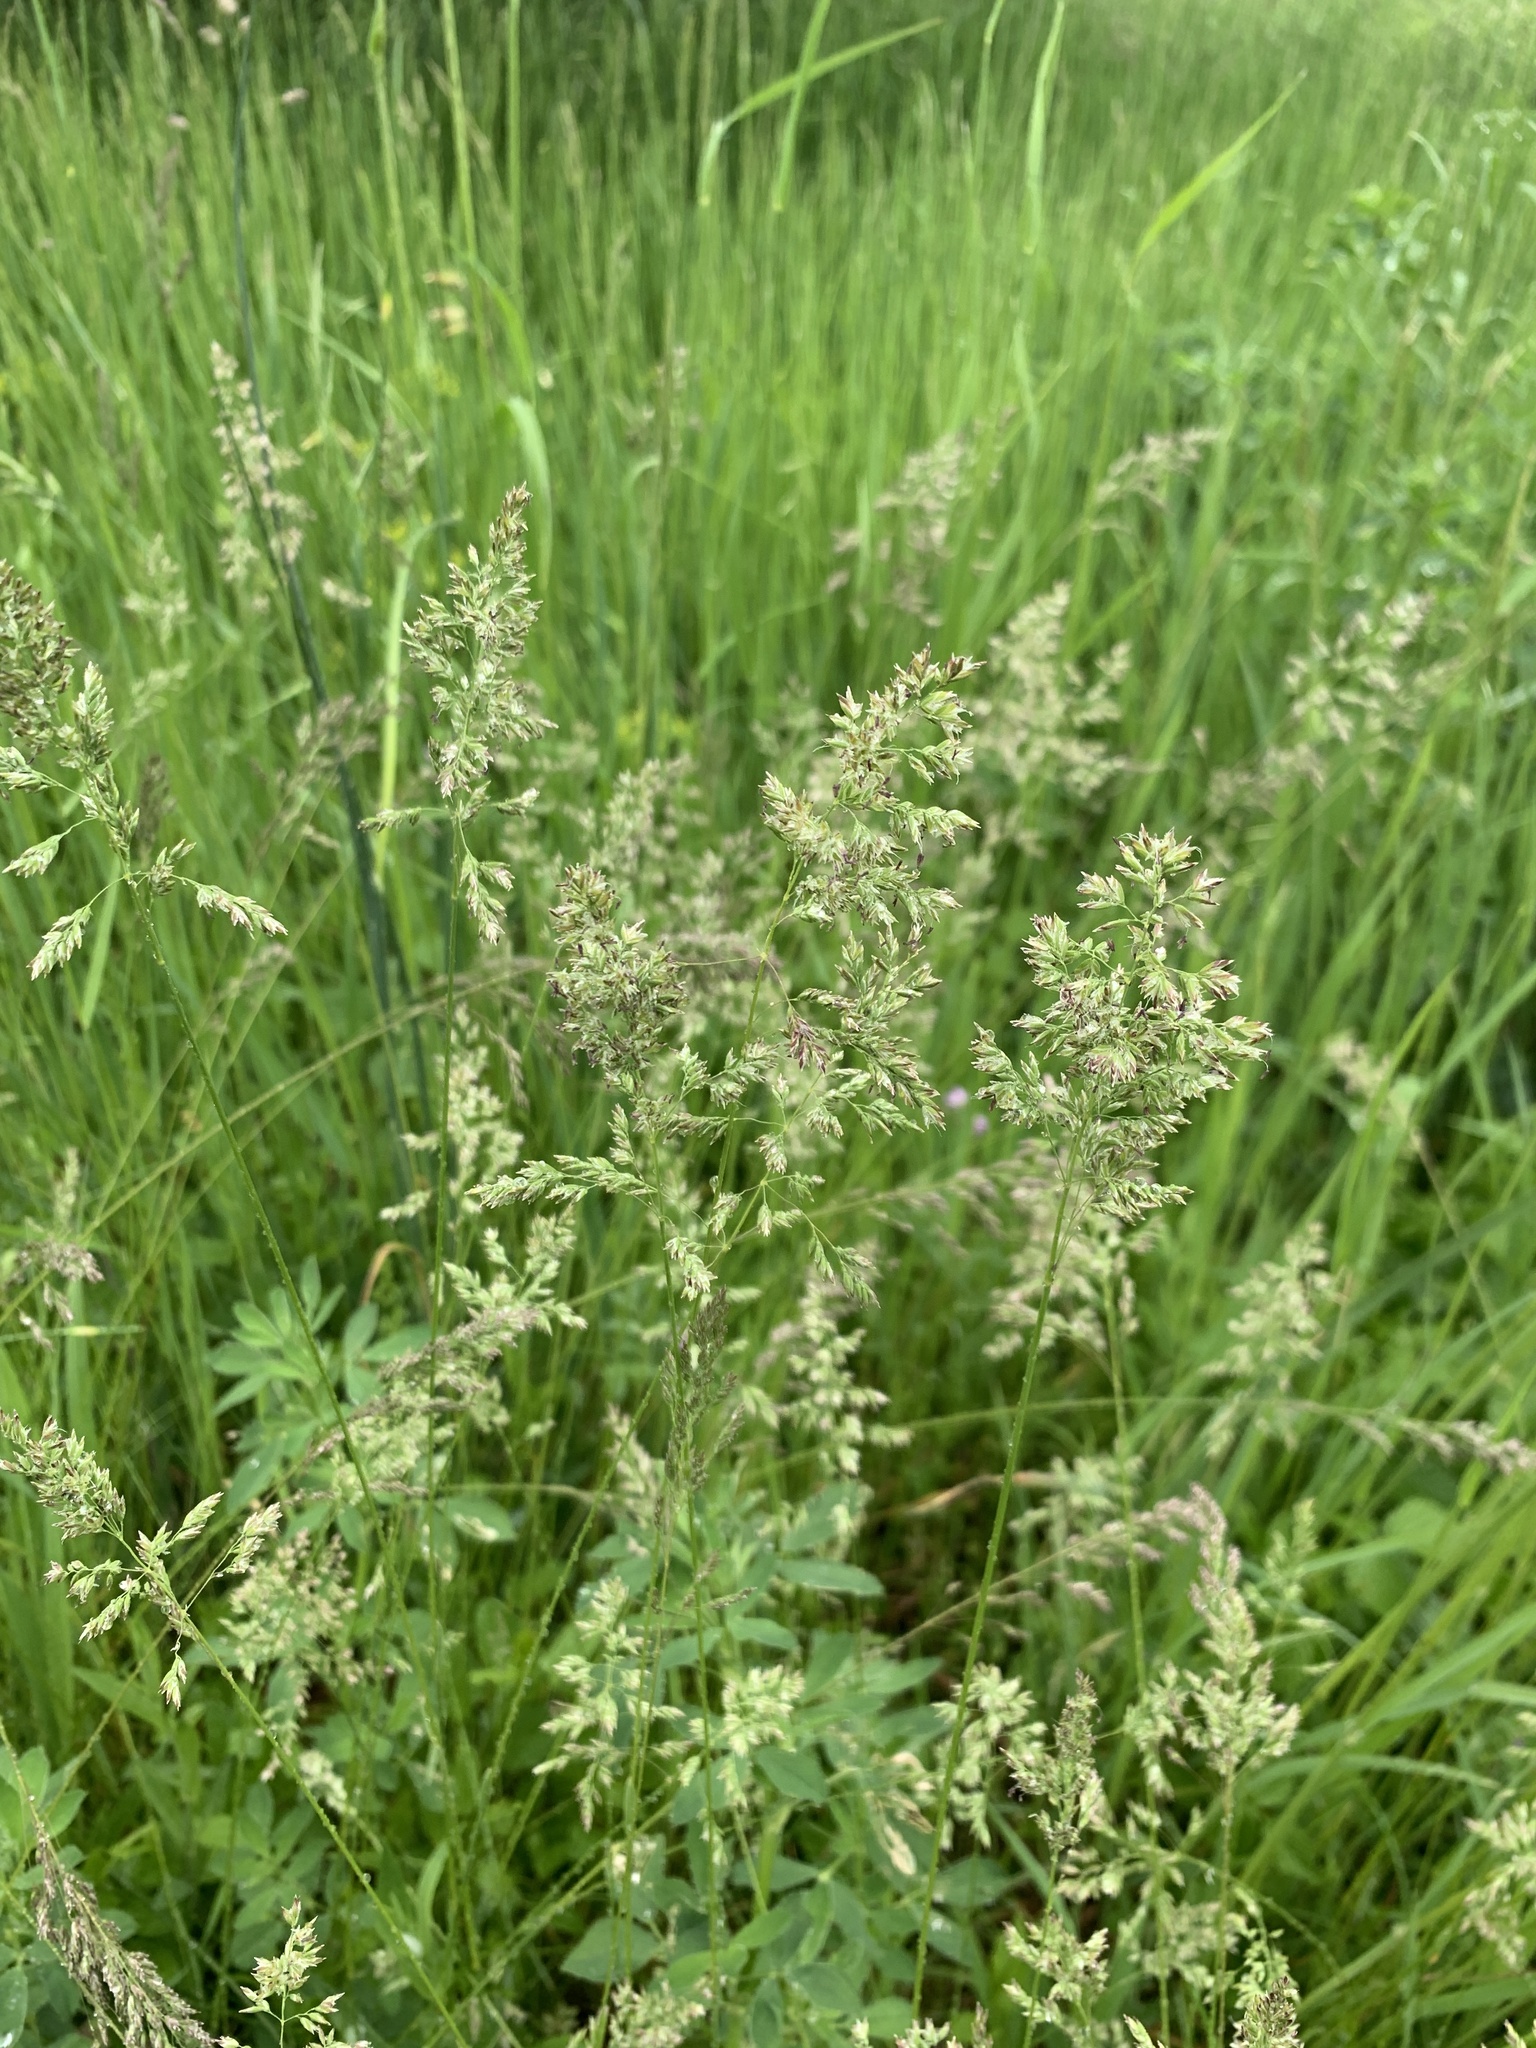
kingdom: Plantae
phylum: Tracheophyta
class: Liliopsida
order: Poales
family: Poaceae
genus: Poa
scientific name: Poa angustifolia
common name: Narrow-leaved meadow-grass
